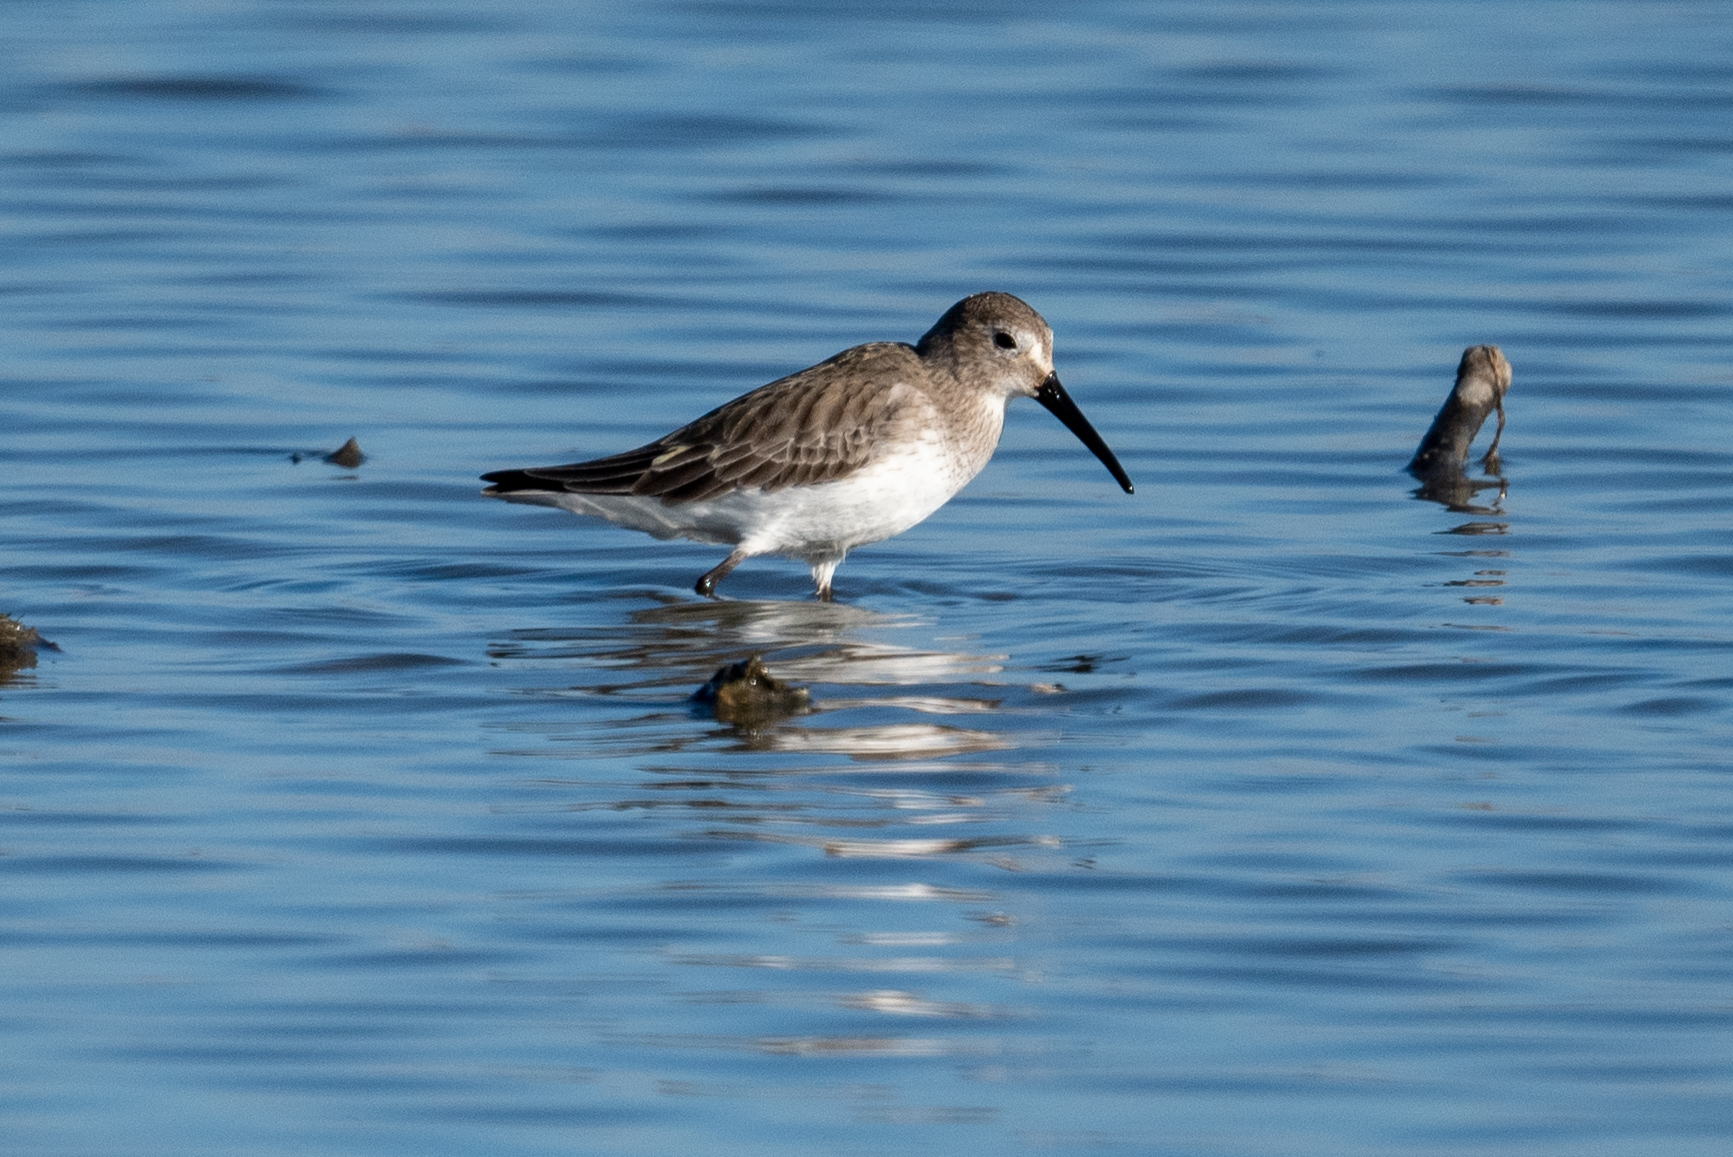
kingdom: Animalia
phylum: Chordata
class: Aves
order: Charadriiformes
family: Scolopacidae
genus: Calidris
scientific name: Calidris alpina
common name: Dunlin
